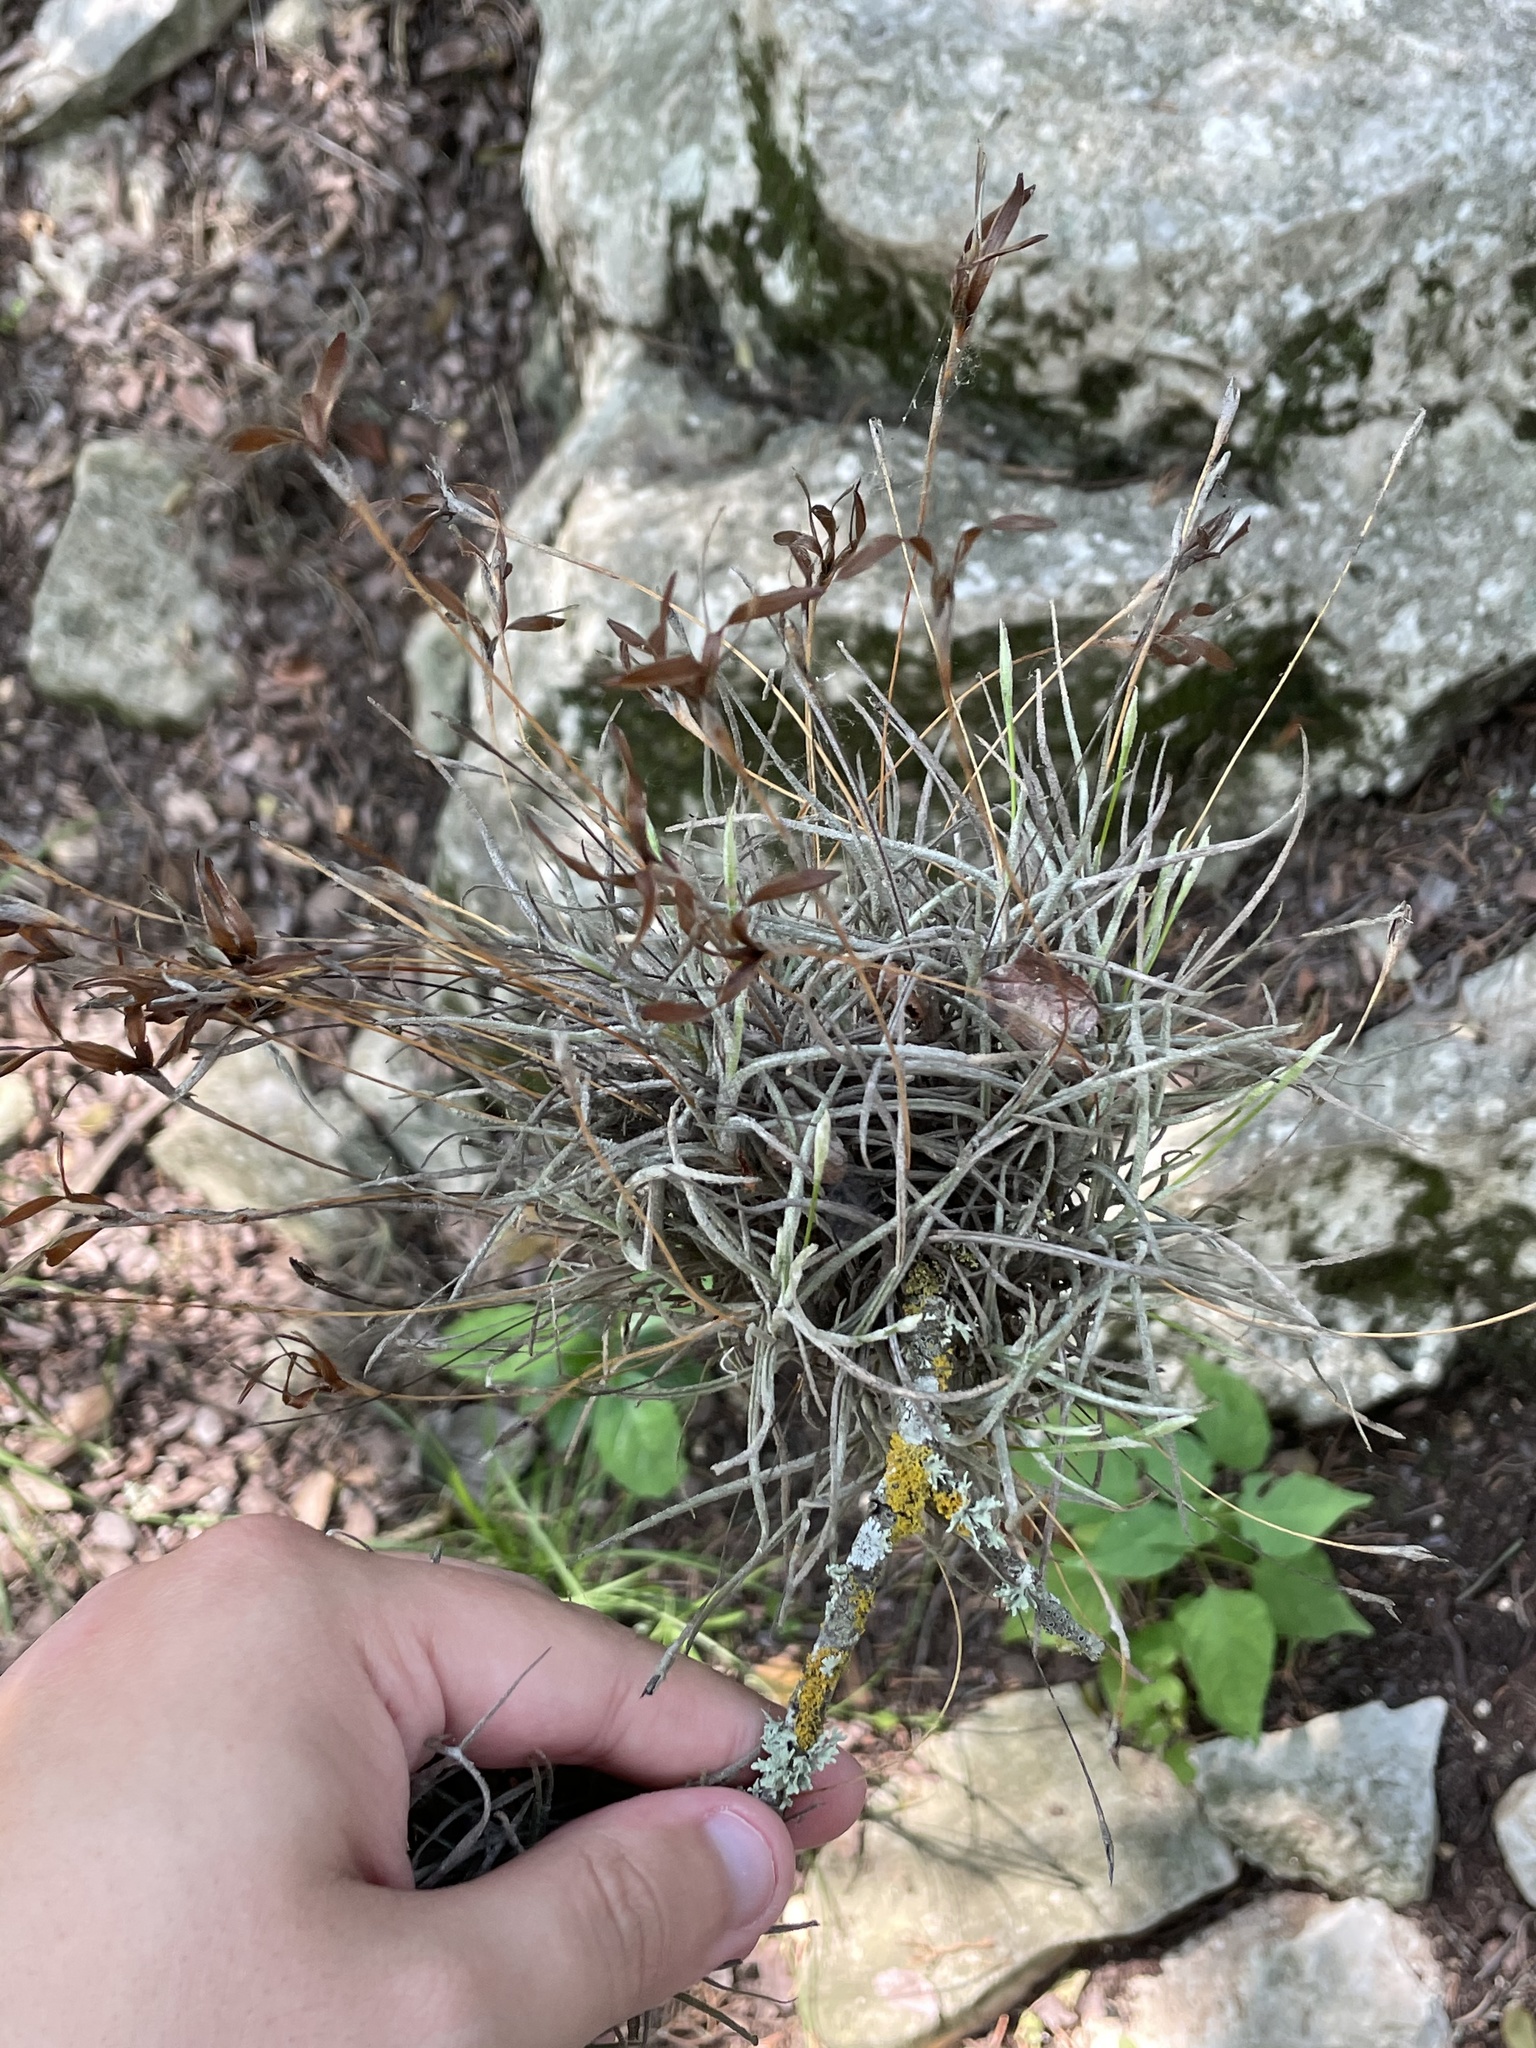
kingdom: Plantae
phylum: Tracheophyta
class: Liliopsida
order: Poales
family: Bromeliaceae
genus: Tillandsia
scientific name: Tillandsia recurvata
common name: Small ballmoss
